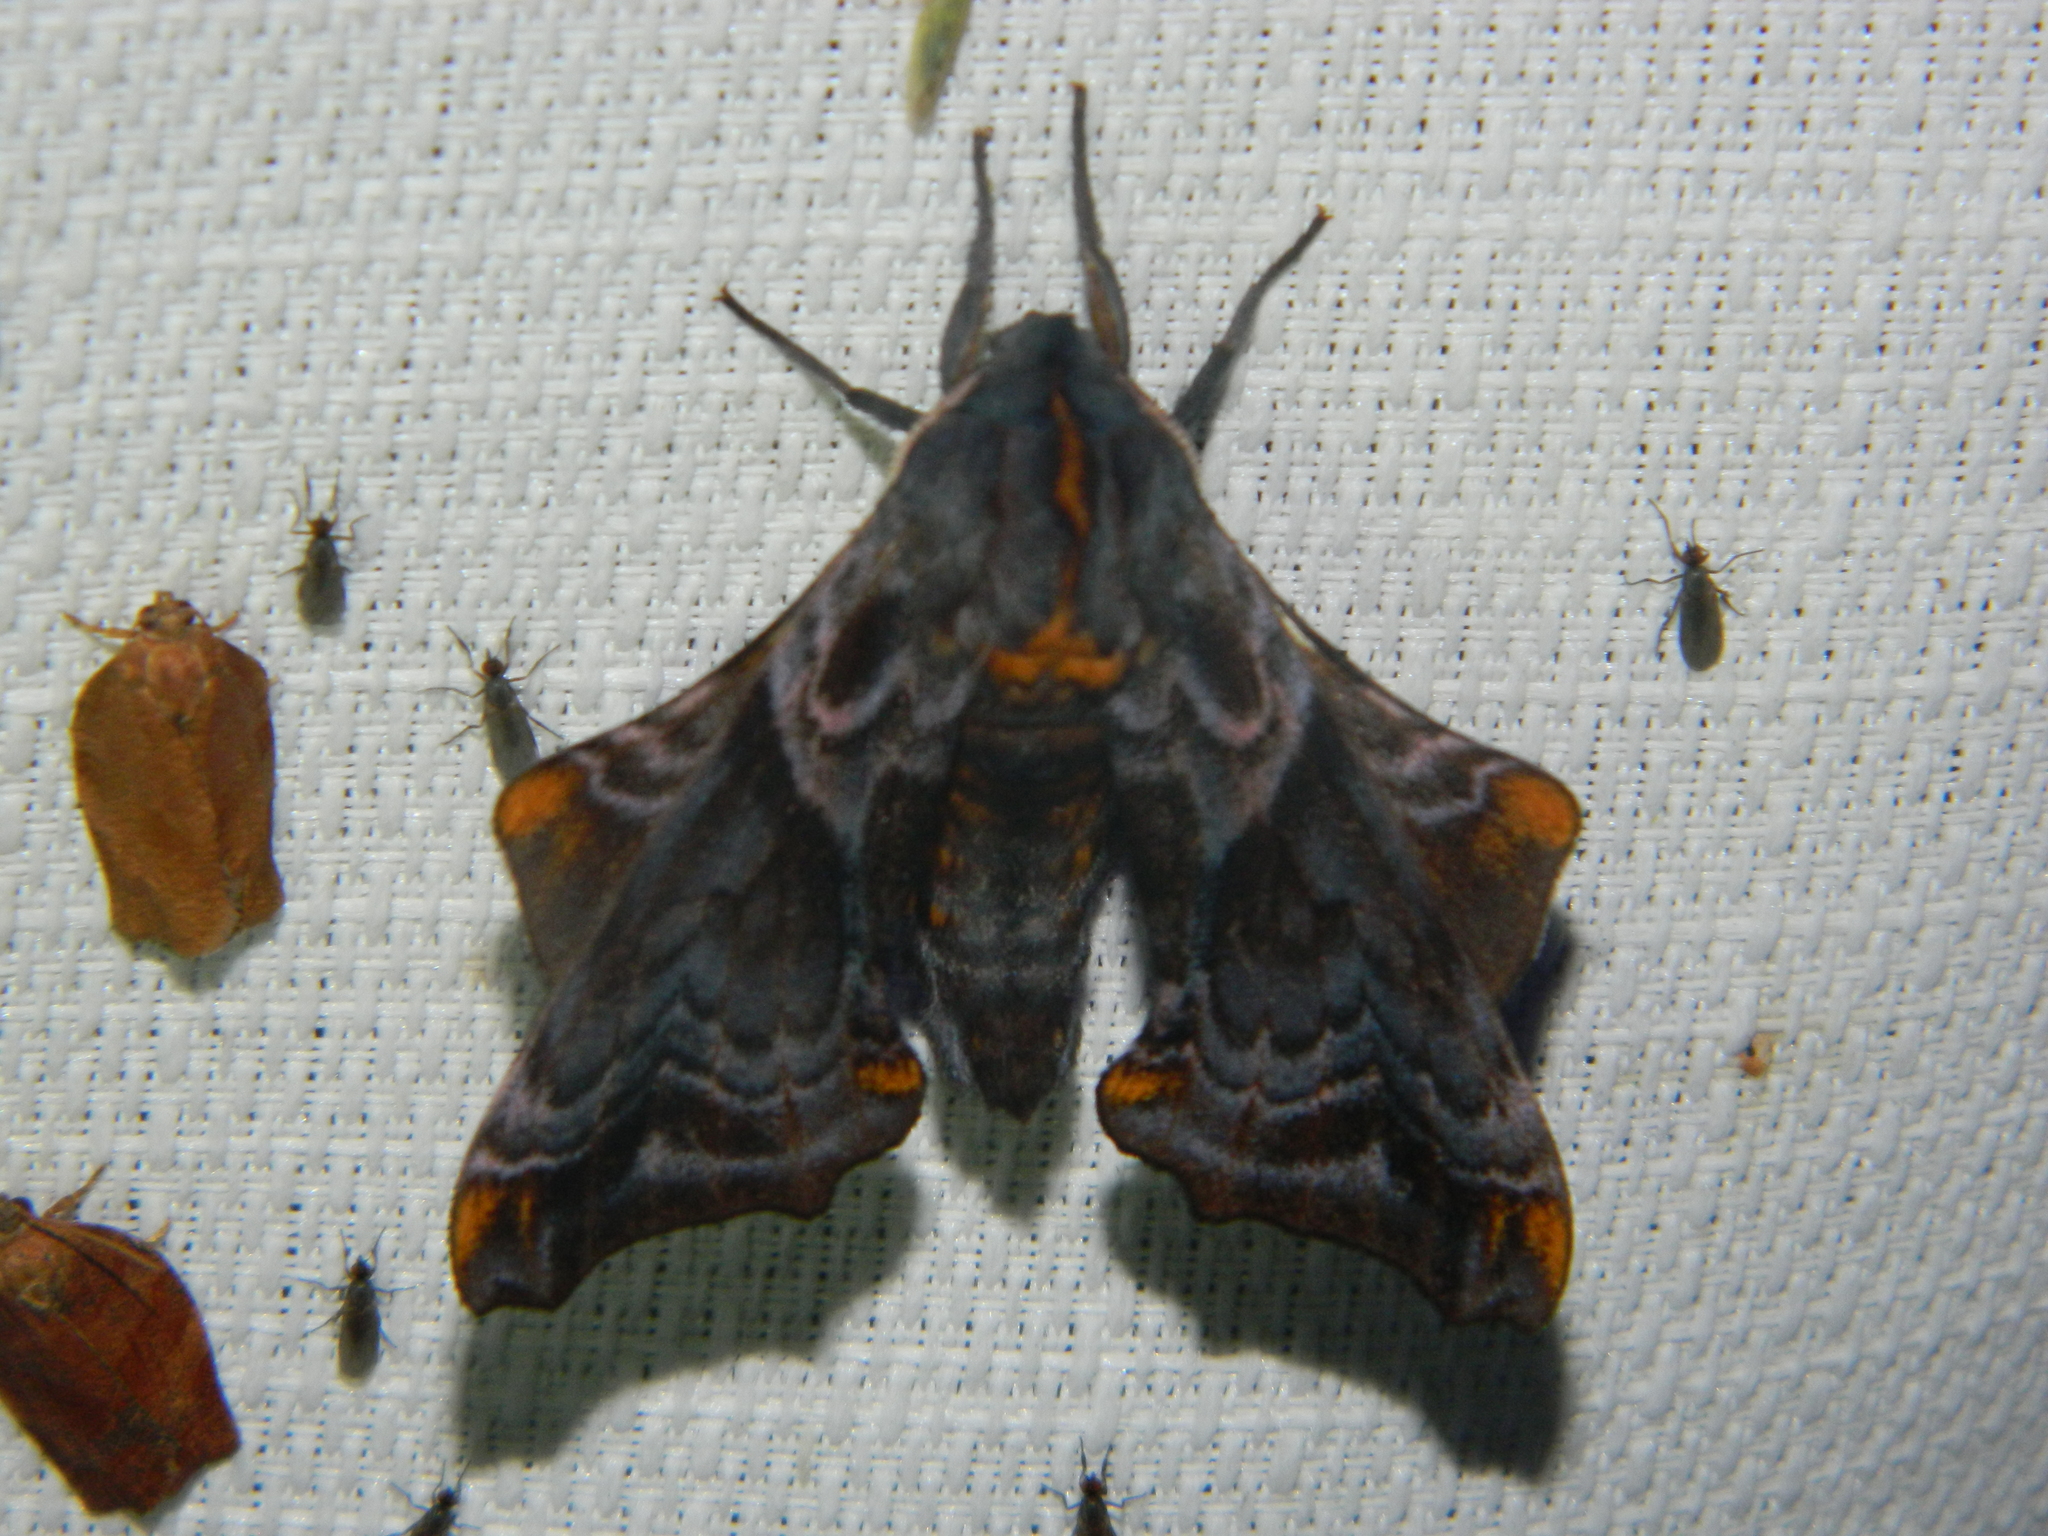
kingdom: Animalia
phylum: Arthropoda
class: Insecta
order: Lepidoptera
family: Sphingidae
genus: Paonias
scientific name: Paonias myops
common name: Small-eyed sphinx
